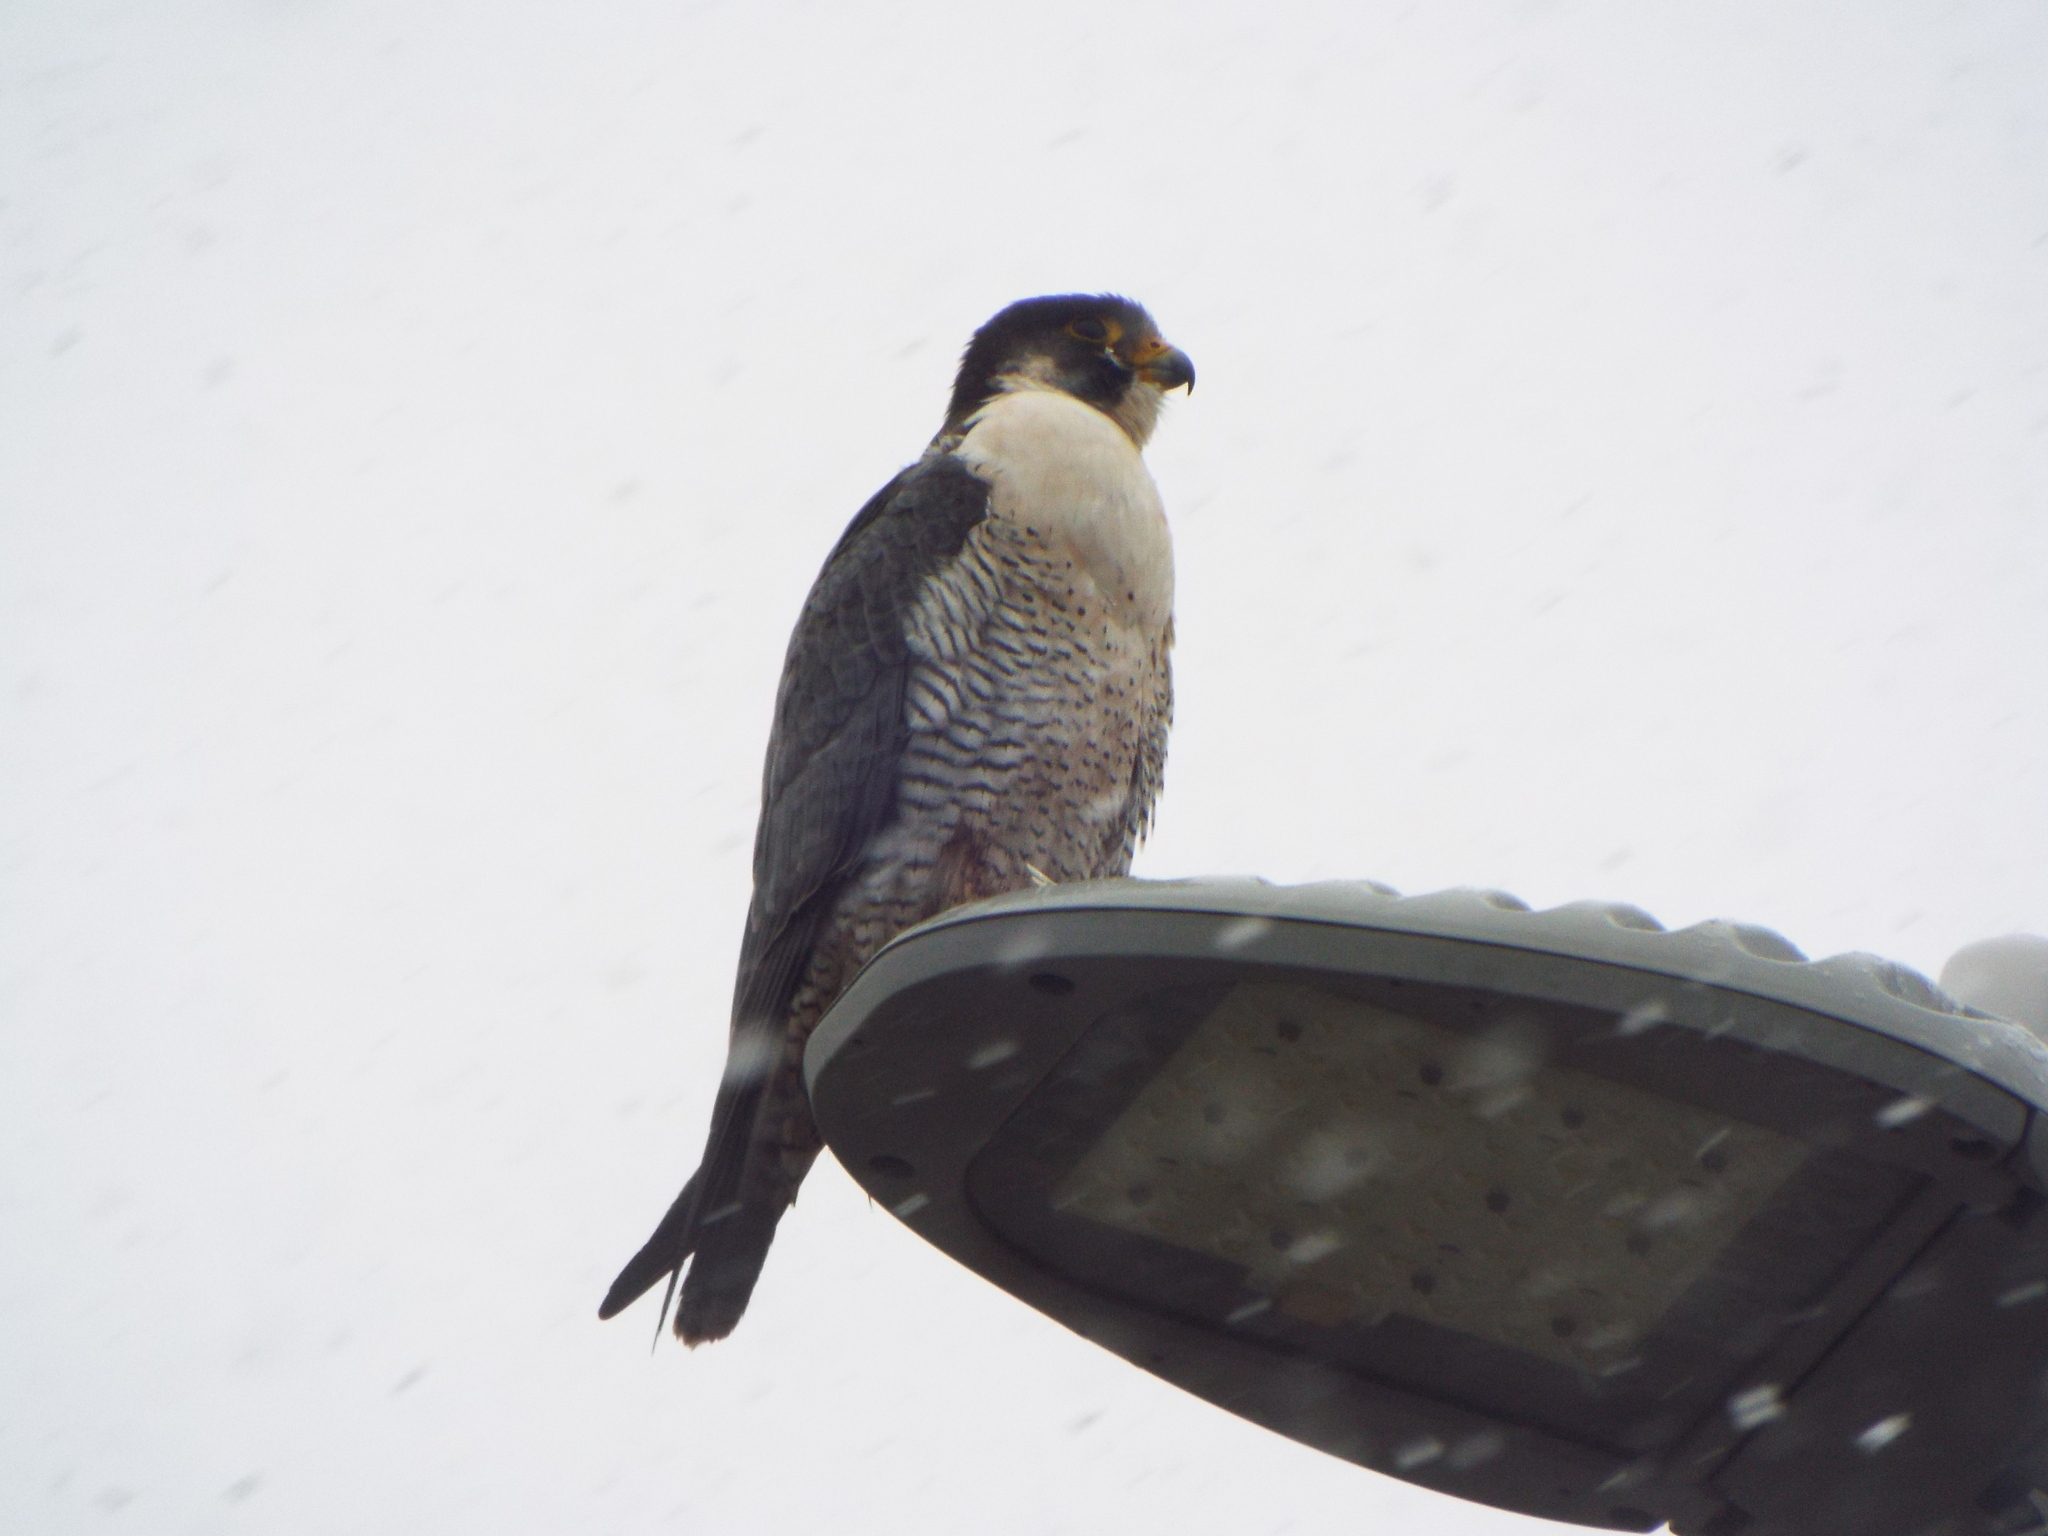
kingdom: Animalia
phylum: Chordata
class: Aves
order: Falconiformes
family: Falconidae
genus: Falco
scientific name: Falco peregrinus
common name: Peregrine falcon
